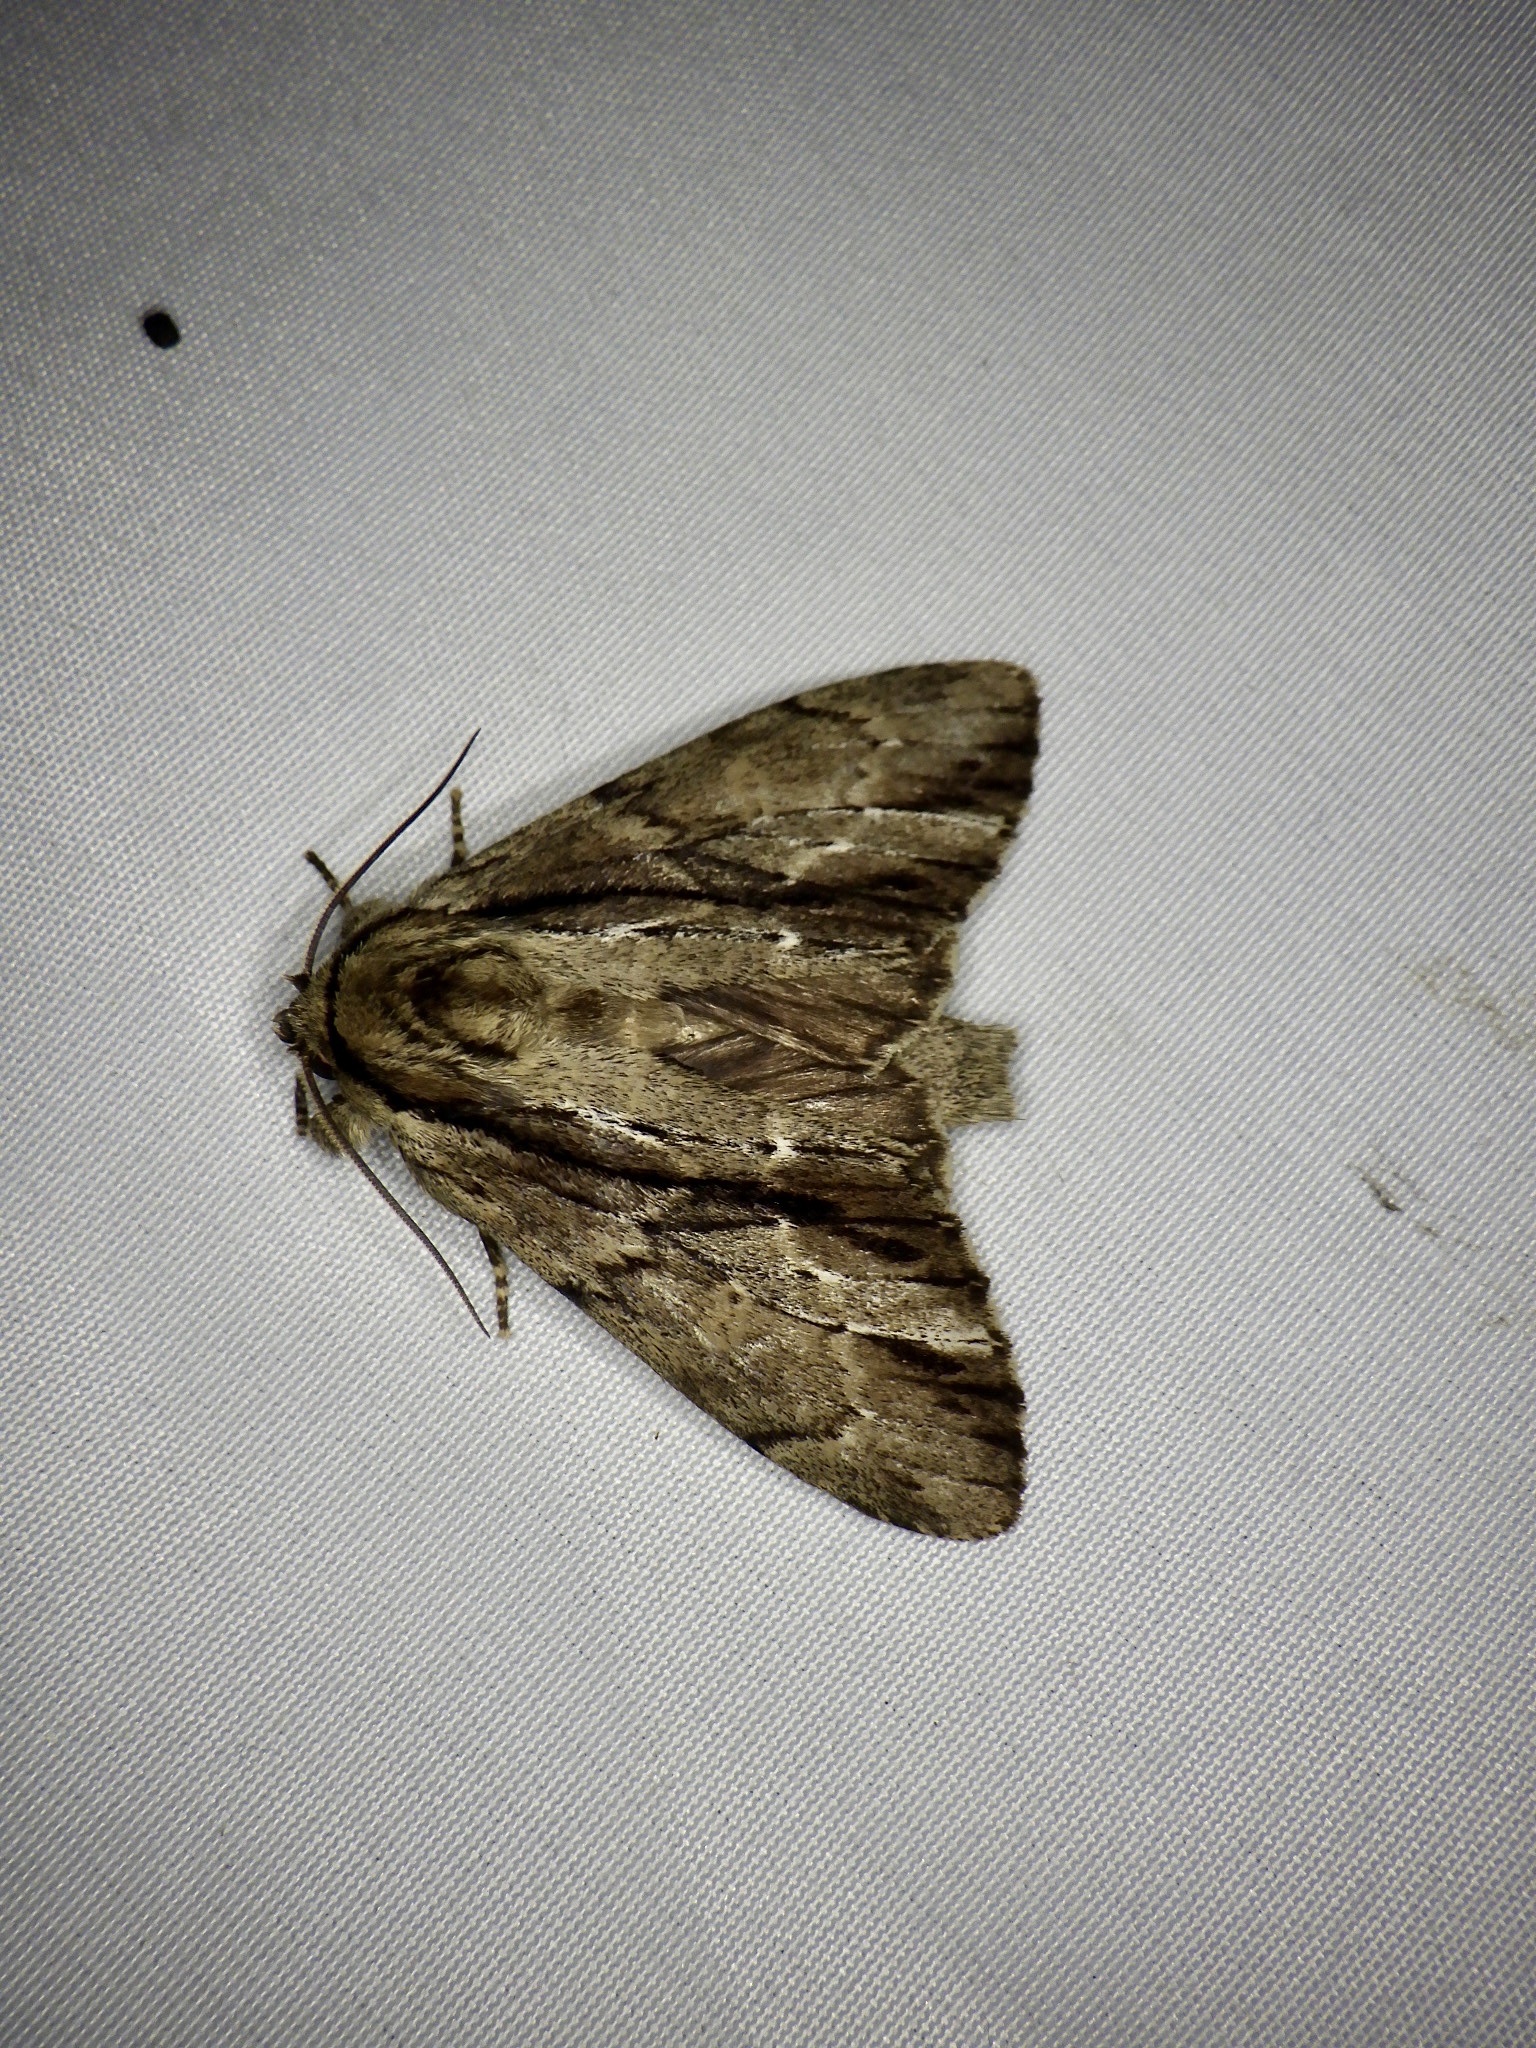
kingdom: Animalia
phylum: Arthropoda
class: Insecta
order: Lepidoptera
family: Notodontidae
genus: Shaka
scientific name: Shaka atrovittatus
